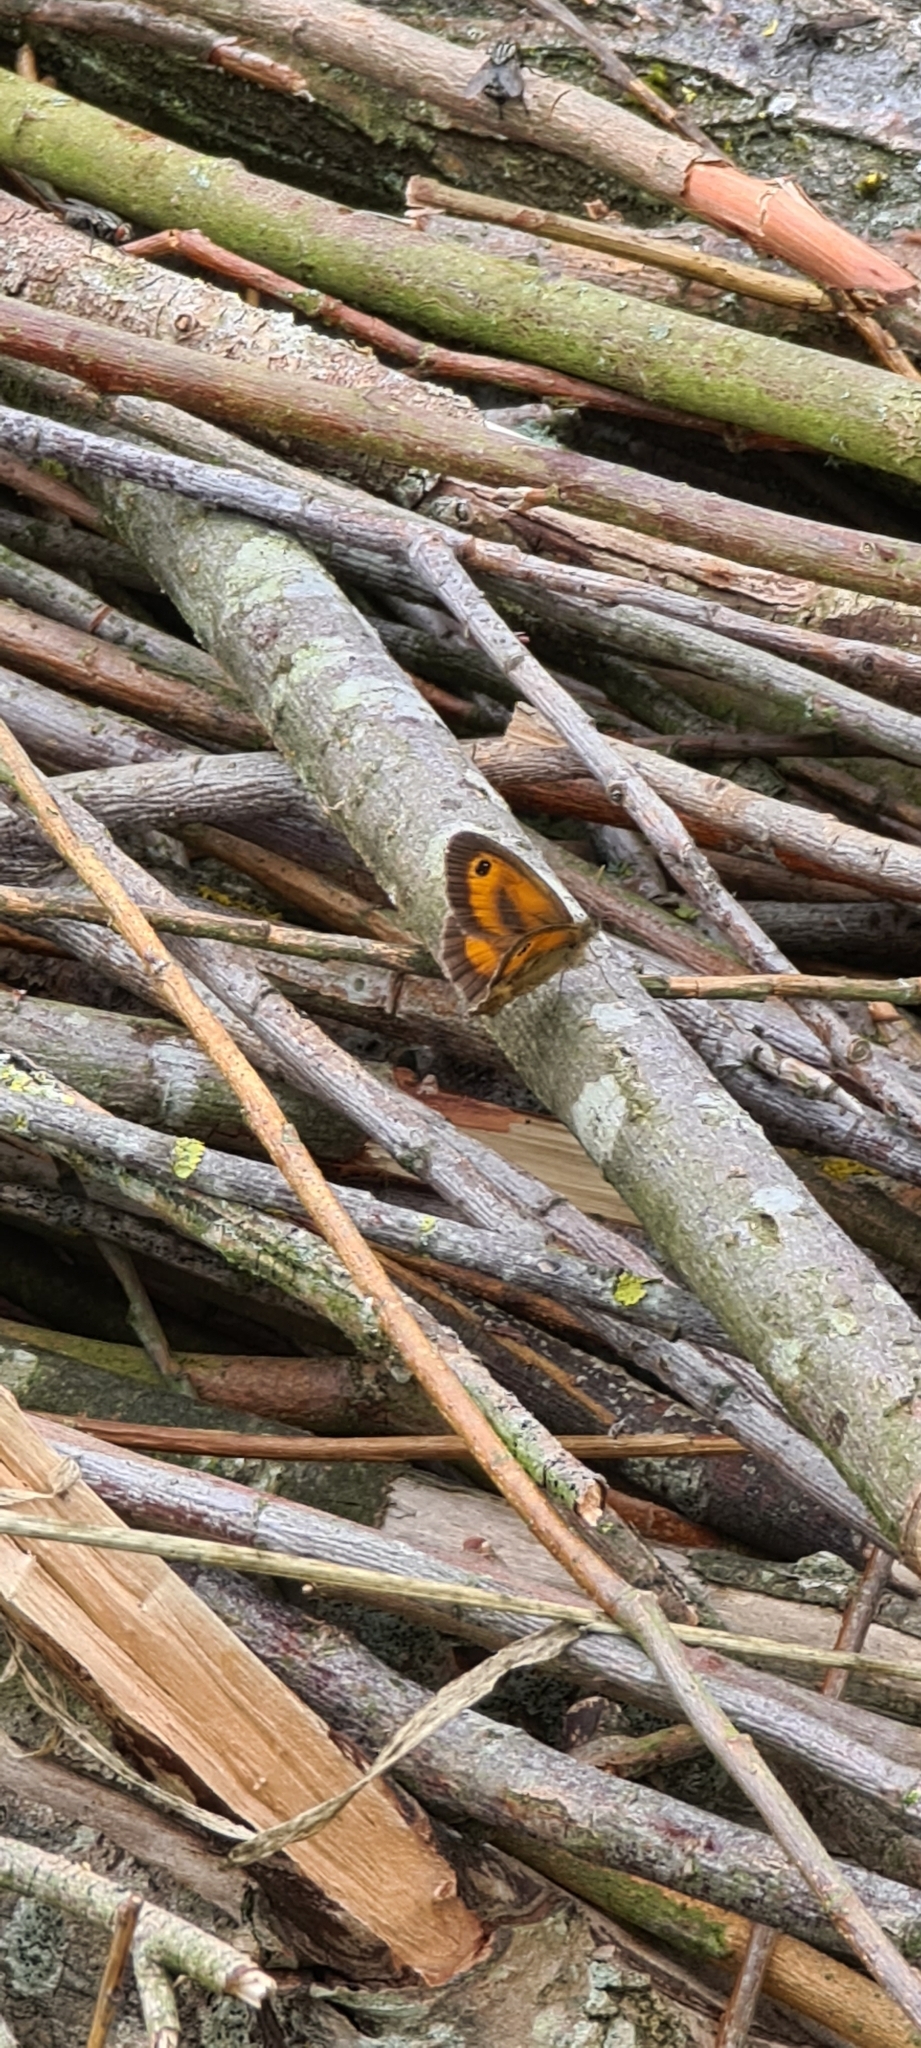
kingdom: Animalia
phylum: Arthropoda
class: Insecta
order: Lepidoptera
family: Nymphalidae
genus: Pyronia
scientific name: Pyronia tithonus
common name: Gatekeeper
